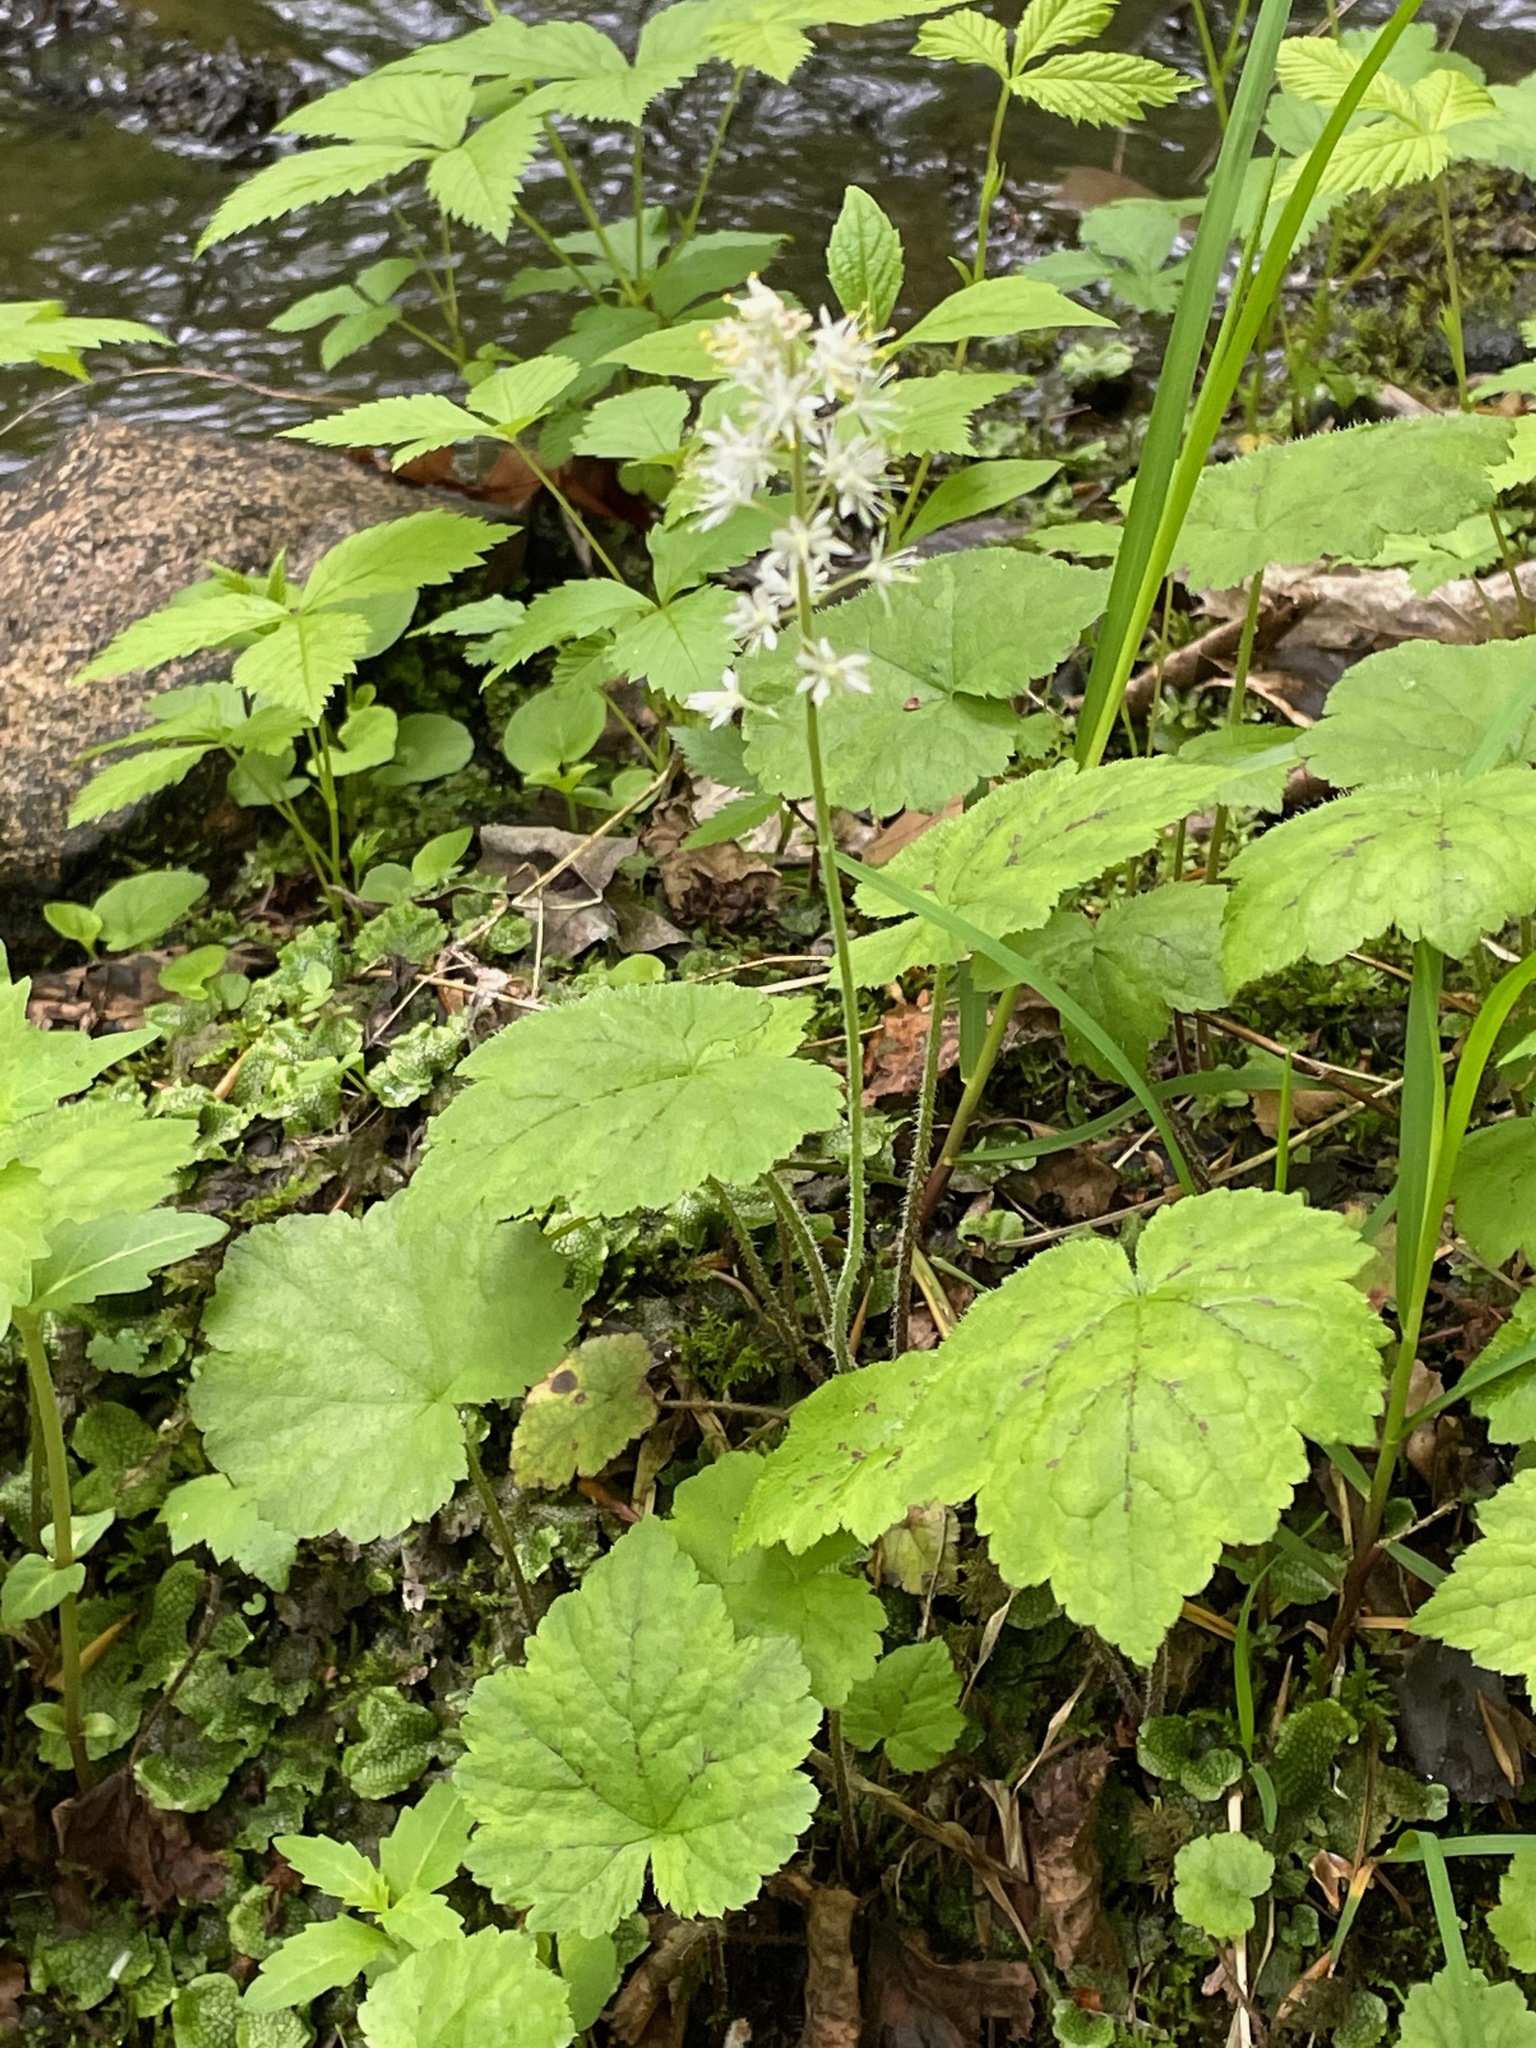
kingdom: Plantae
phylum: Tracheophyta
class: Magnoliopsida
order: Saxifragales
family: Saxifragaceae
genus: Tiarella
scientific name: Tiarella stolonifera
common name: Stoloniferous foamflower
